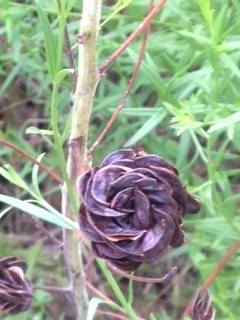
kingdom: Plantae
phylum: Tracheophyta
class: Magnoliopsida
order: Fabales
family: Fabaceae
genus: Desmanthus
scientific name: Desmanthus illinoensis
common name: Illinois bundle-flower
